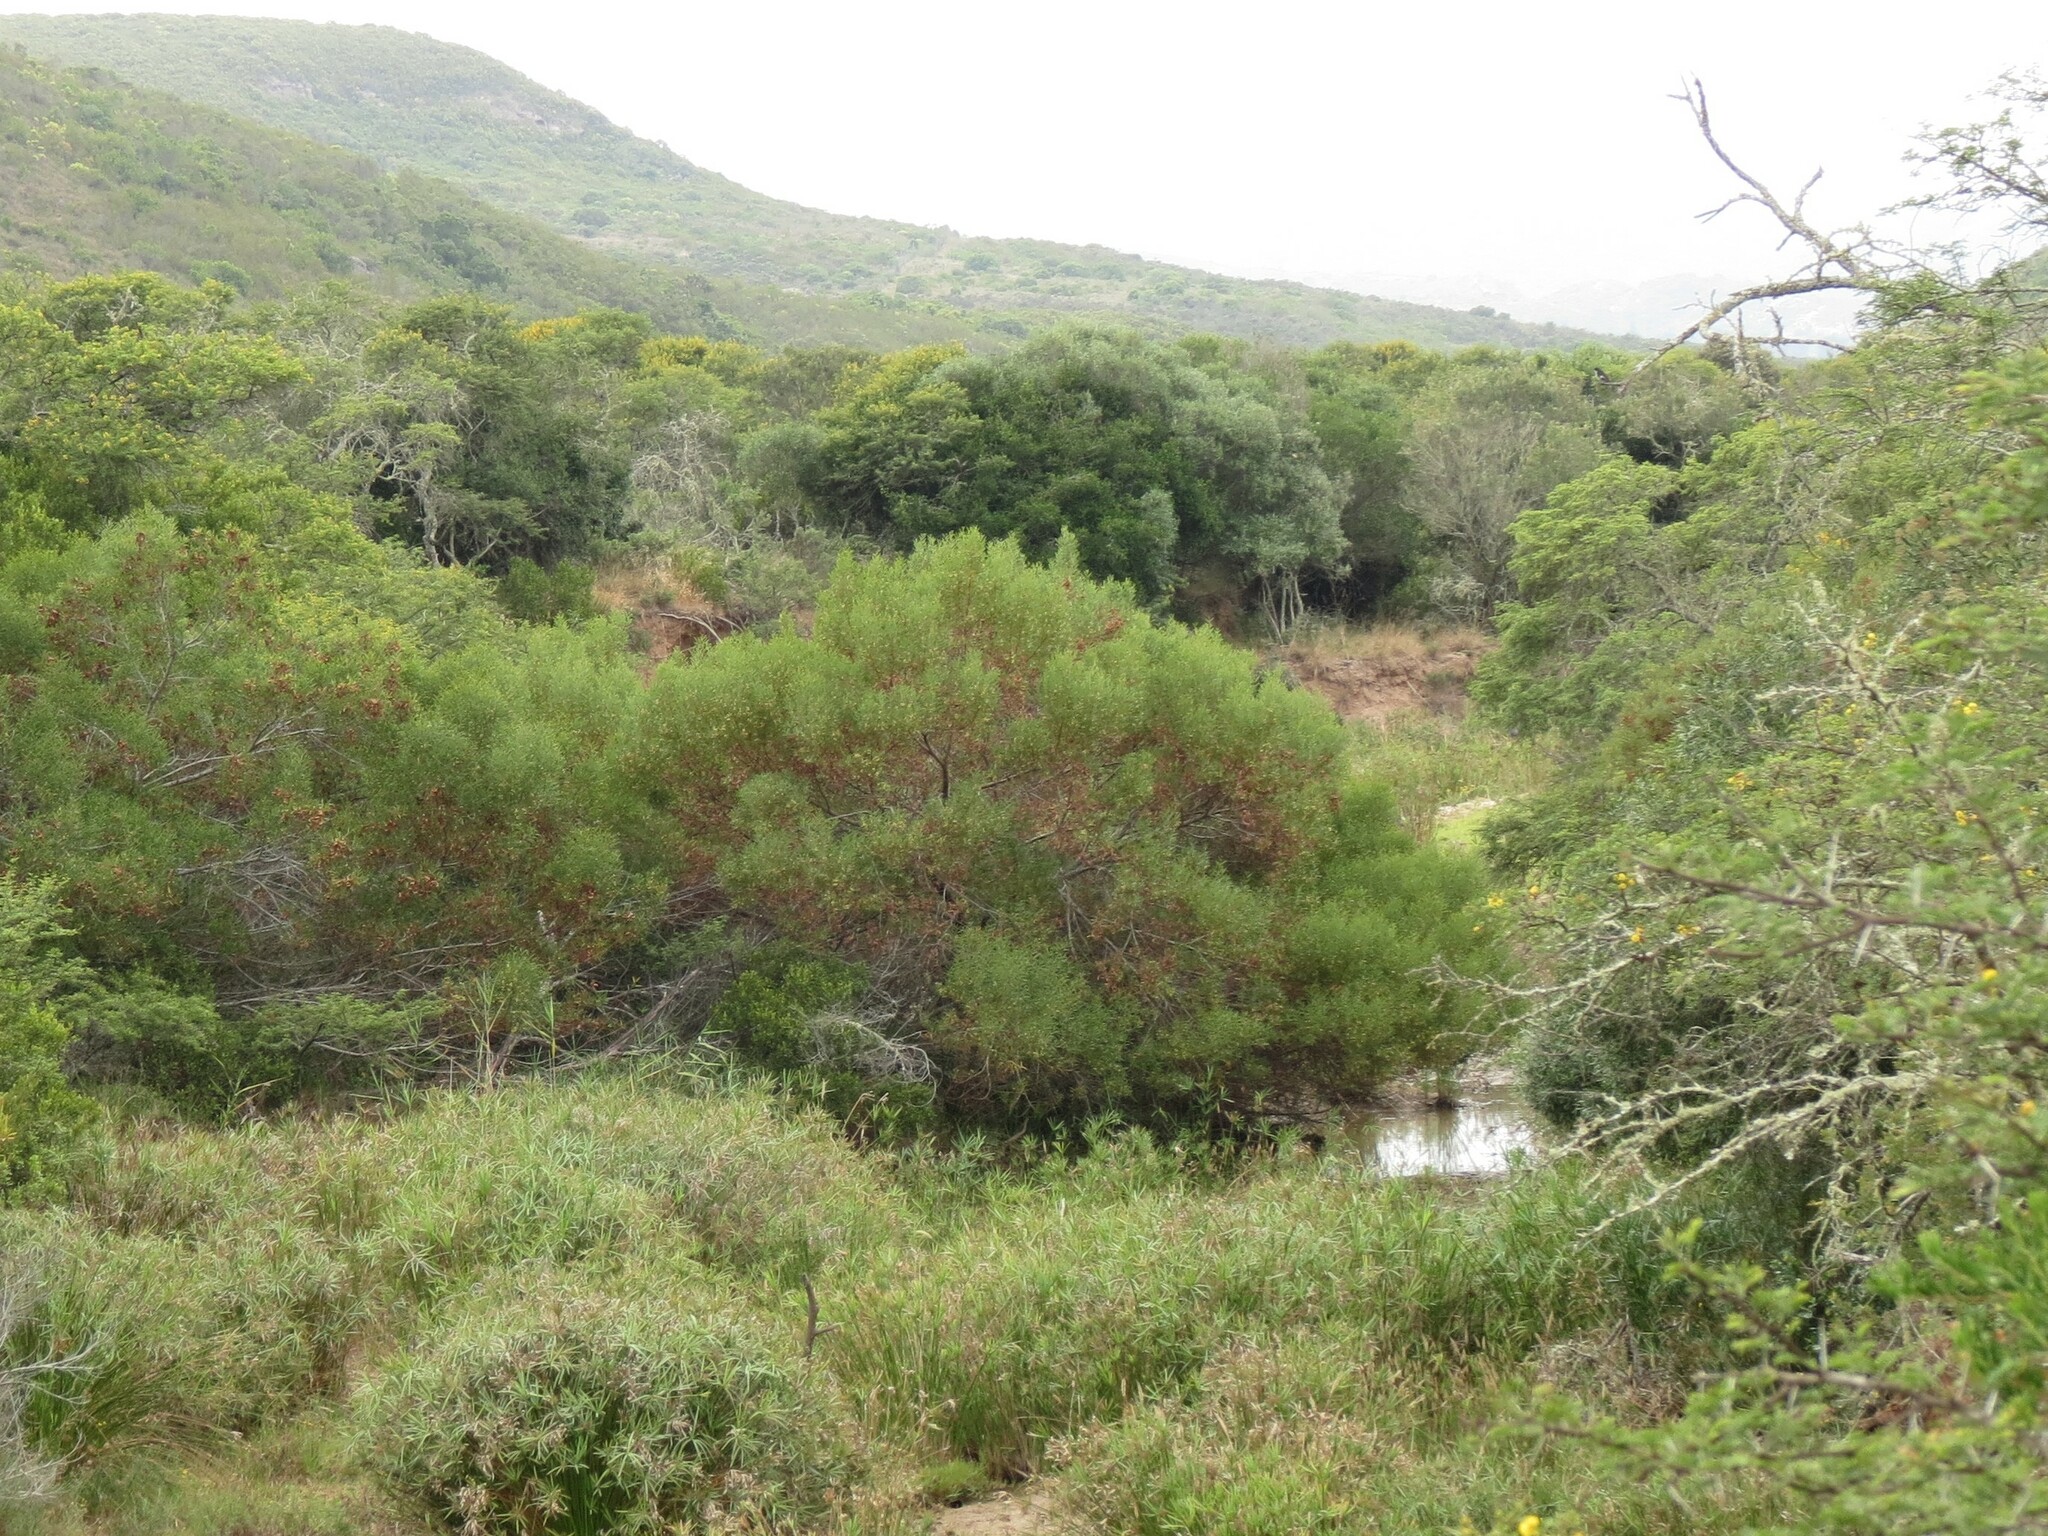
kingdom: Plantae
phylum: Tracheophyta
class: Magnoliopsida
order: Fabales
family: Fabaceae
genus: Acacia
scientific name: Acacia cyclops
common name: Coastal wattle
